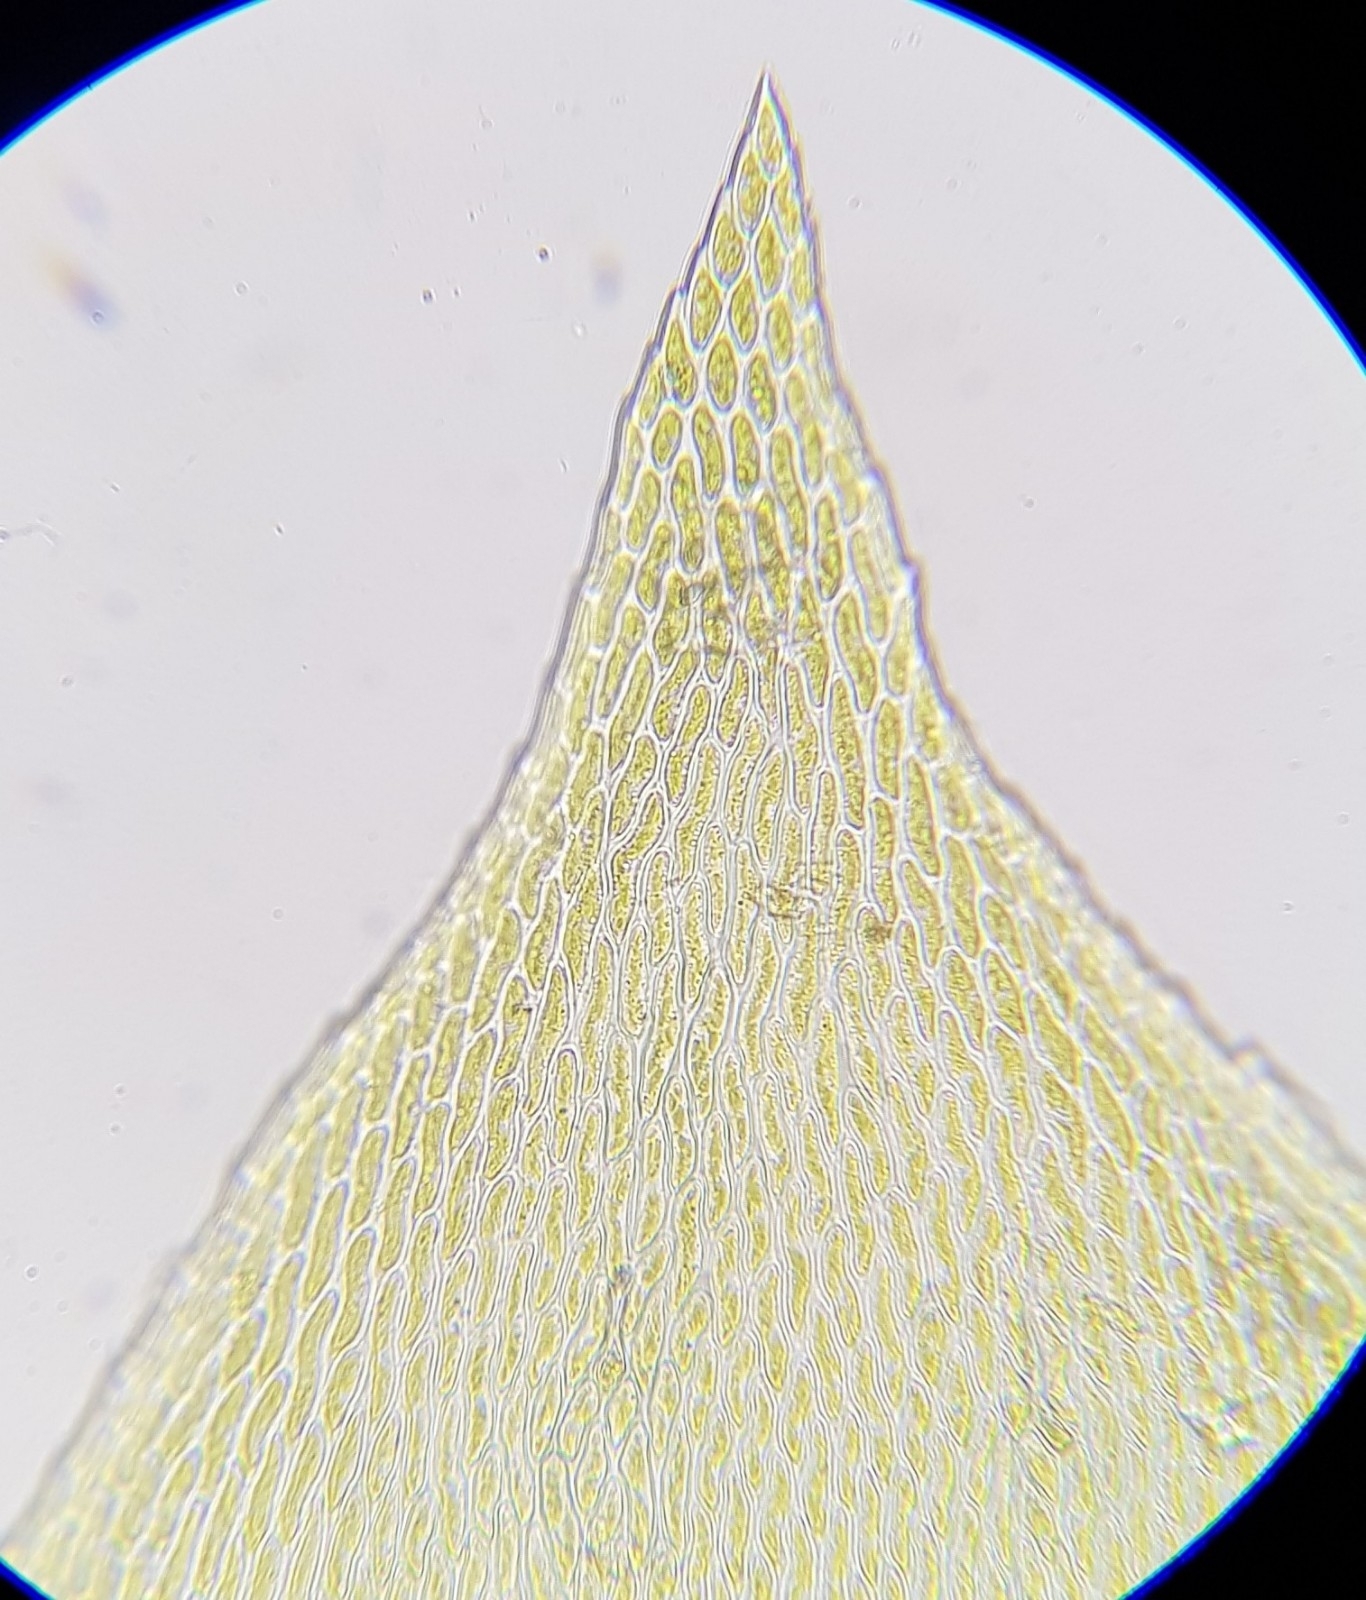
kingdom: Plantae
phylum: Bryophyta
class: Bryopsida
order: Hypnales
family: Lembophyllaceae
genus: Isothecium
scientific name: Isothecium alopecuroides
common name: Larger mouse-tail moss
